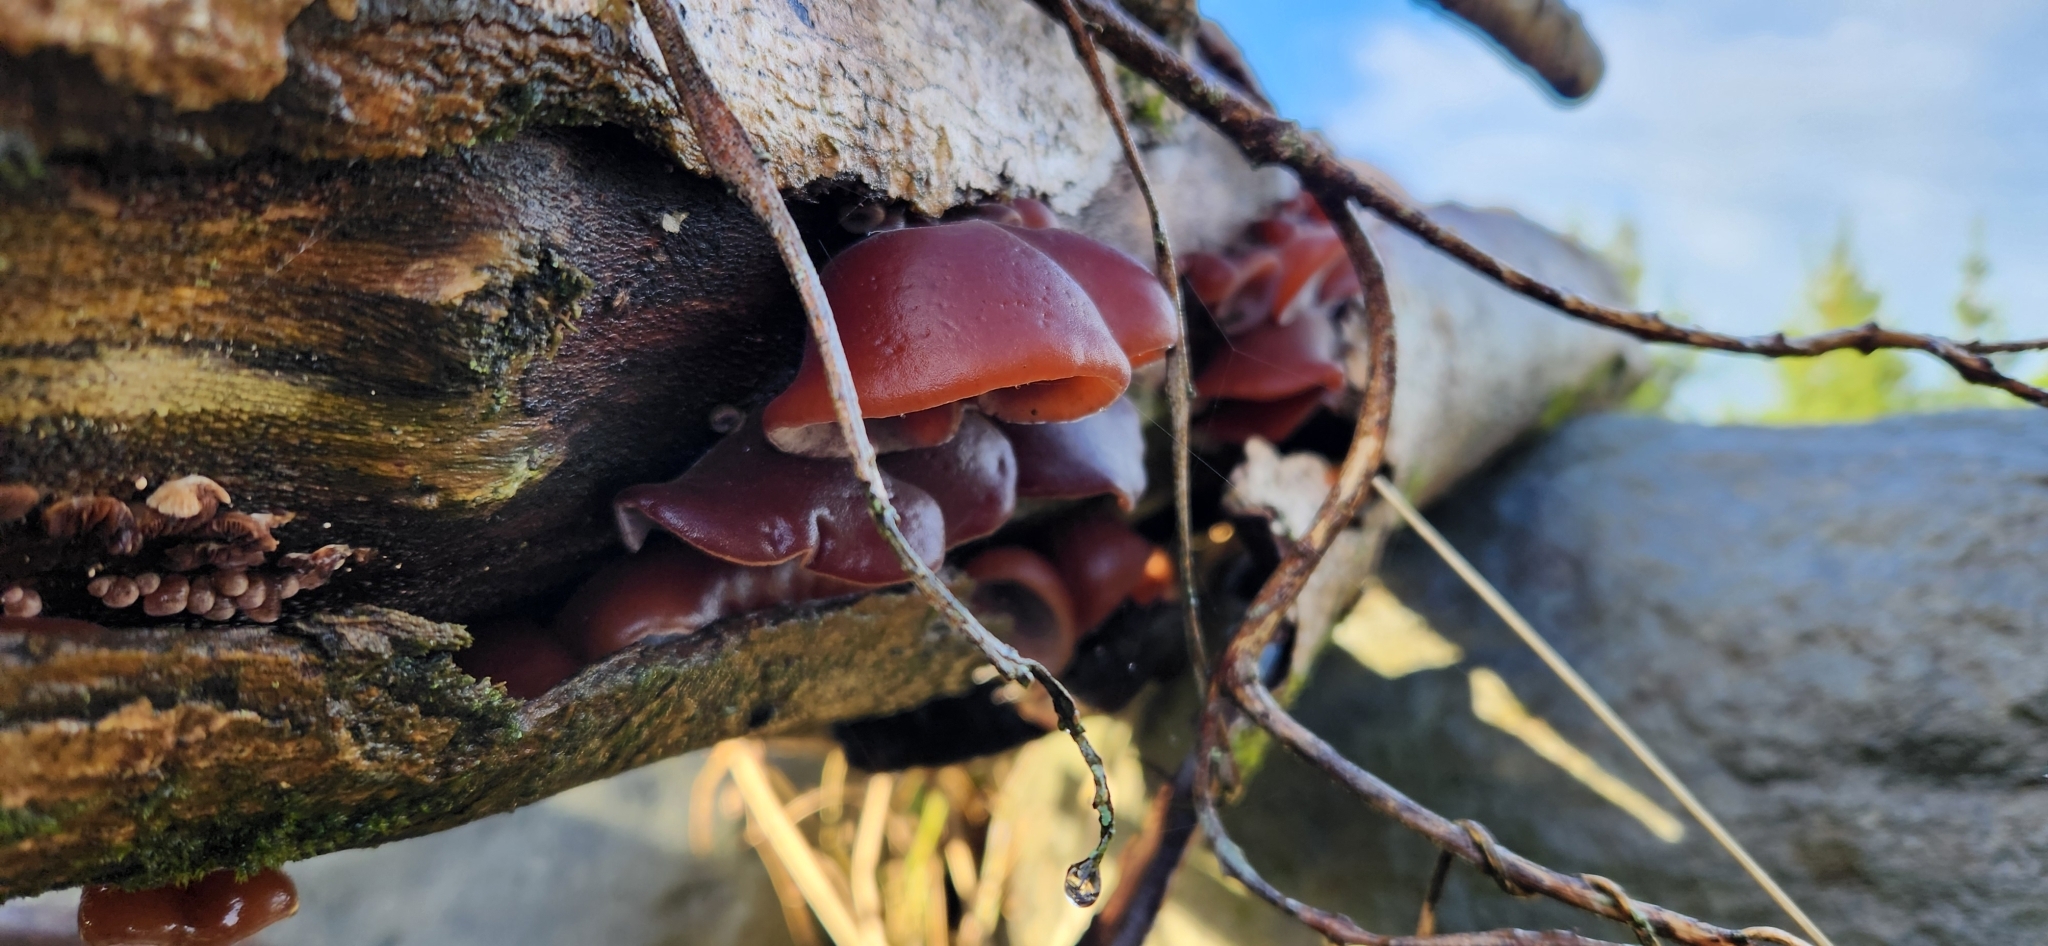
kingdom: Fungi
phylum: Basidiomycota
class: Agaricomycetes
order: Auriculariales
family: Auriculariaceae
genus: Auricularia
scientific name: Auricularia cornea
